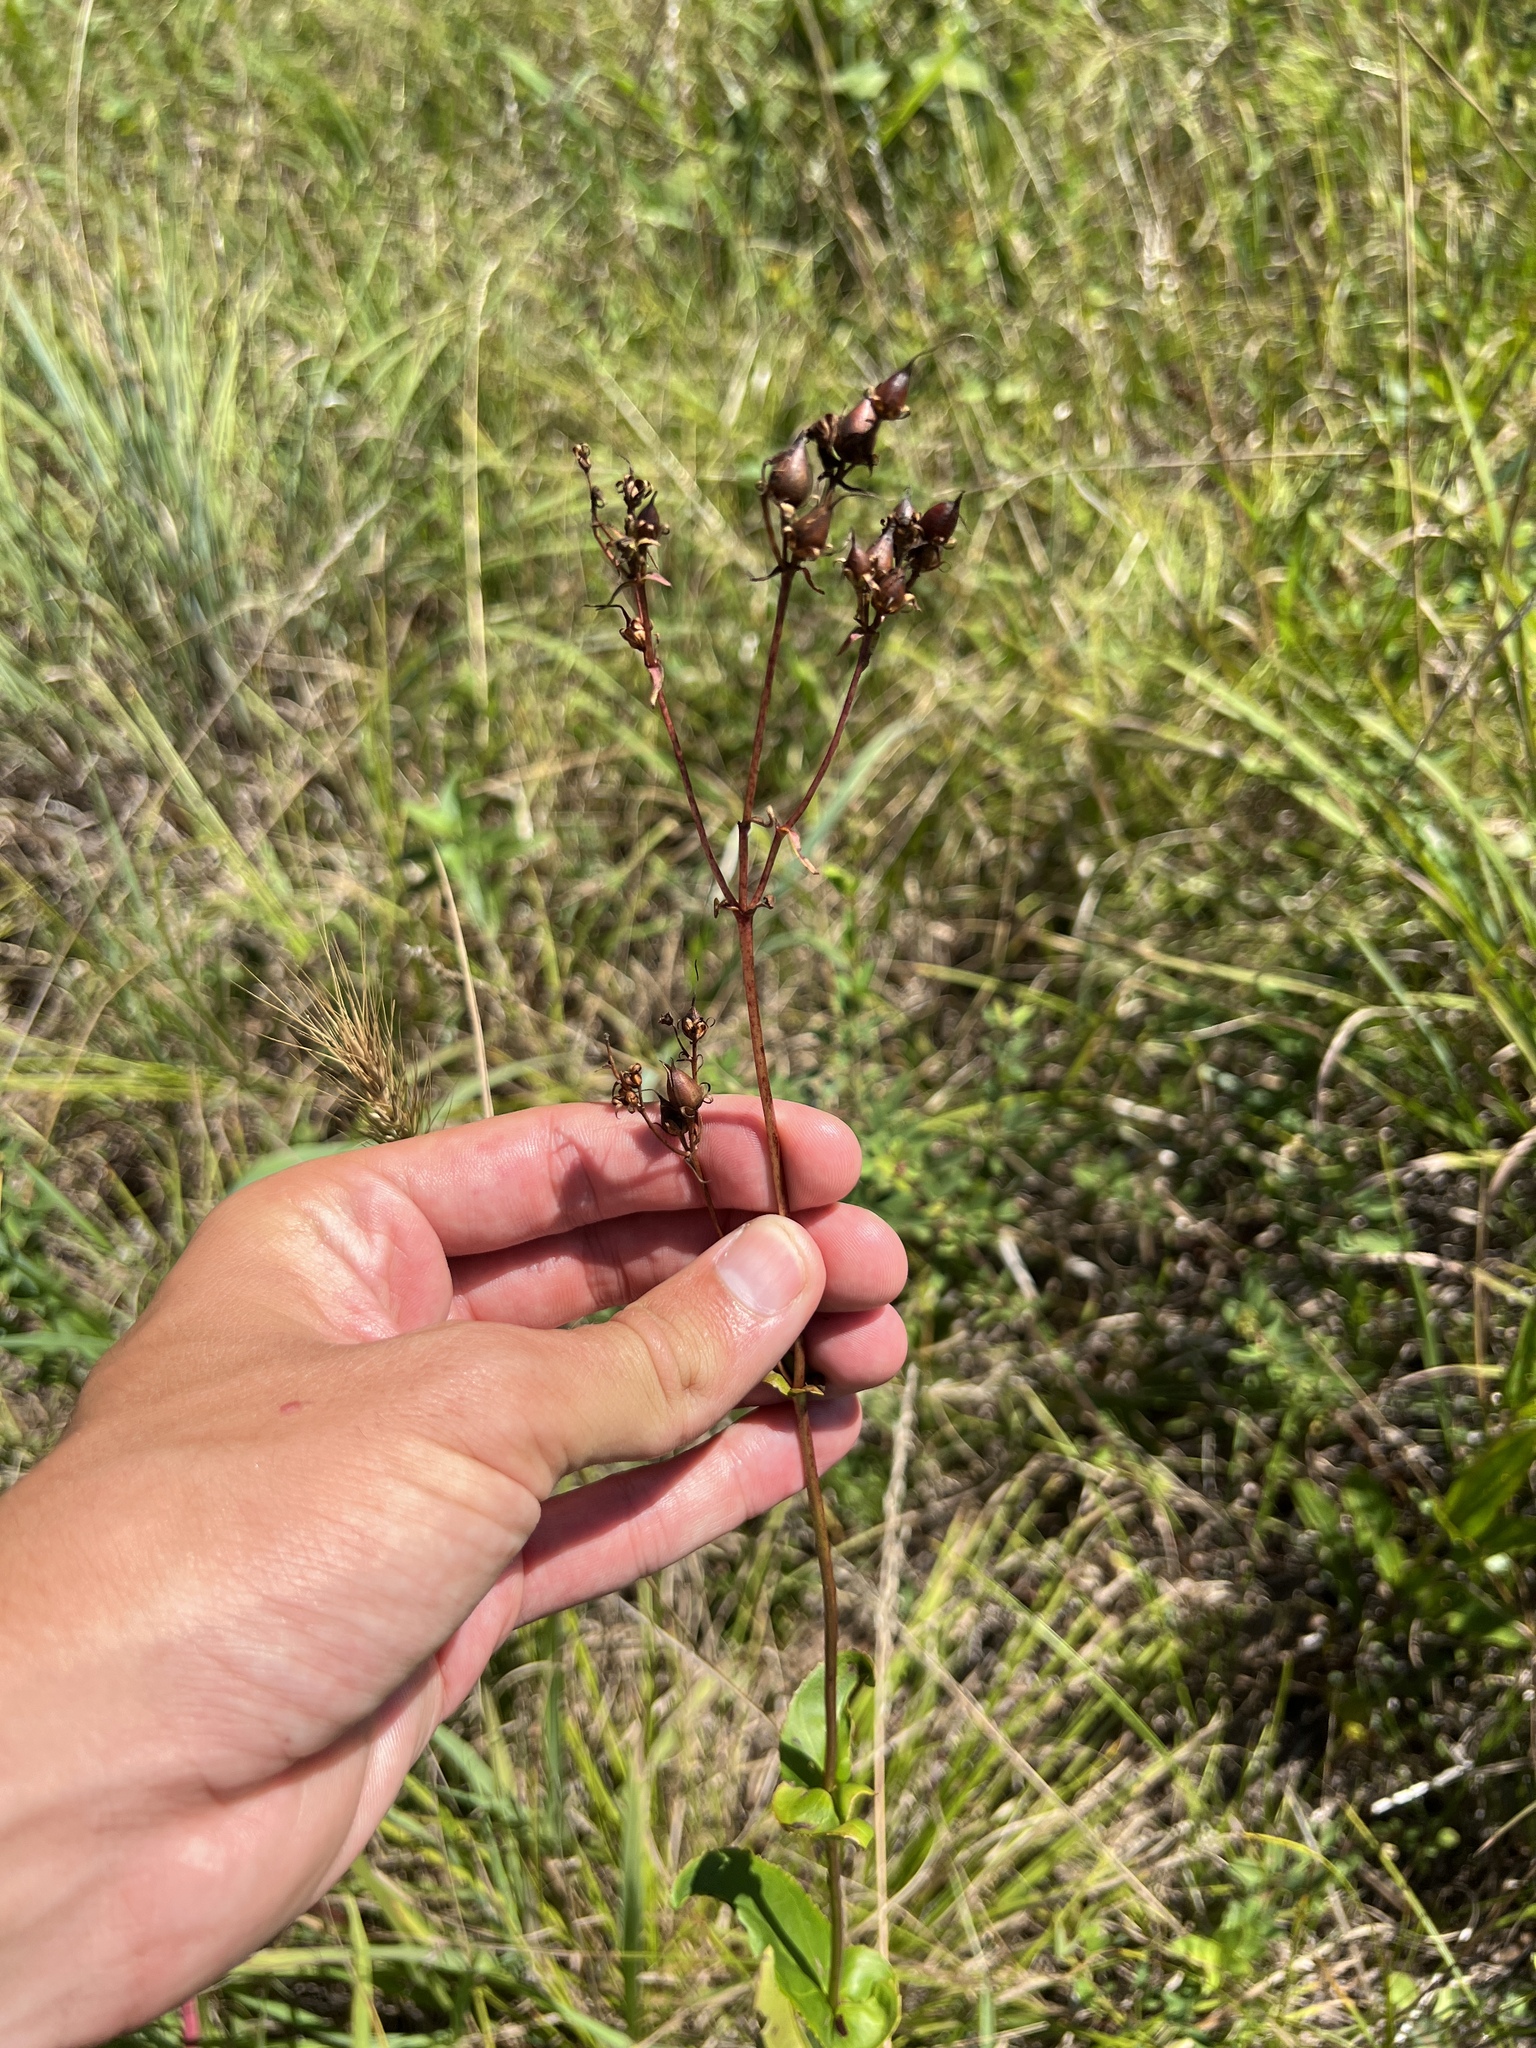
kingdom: Plantae
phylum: Tracheophyta
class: Magnoliopsida
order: Lamiales
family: Plantaginaceae
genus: Penstemon
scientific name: Penstemon digitalis
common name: Foxglove beardtongue
